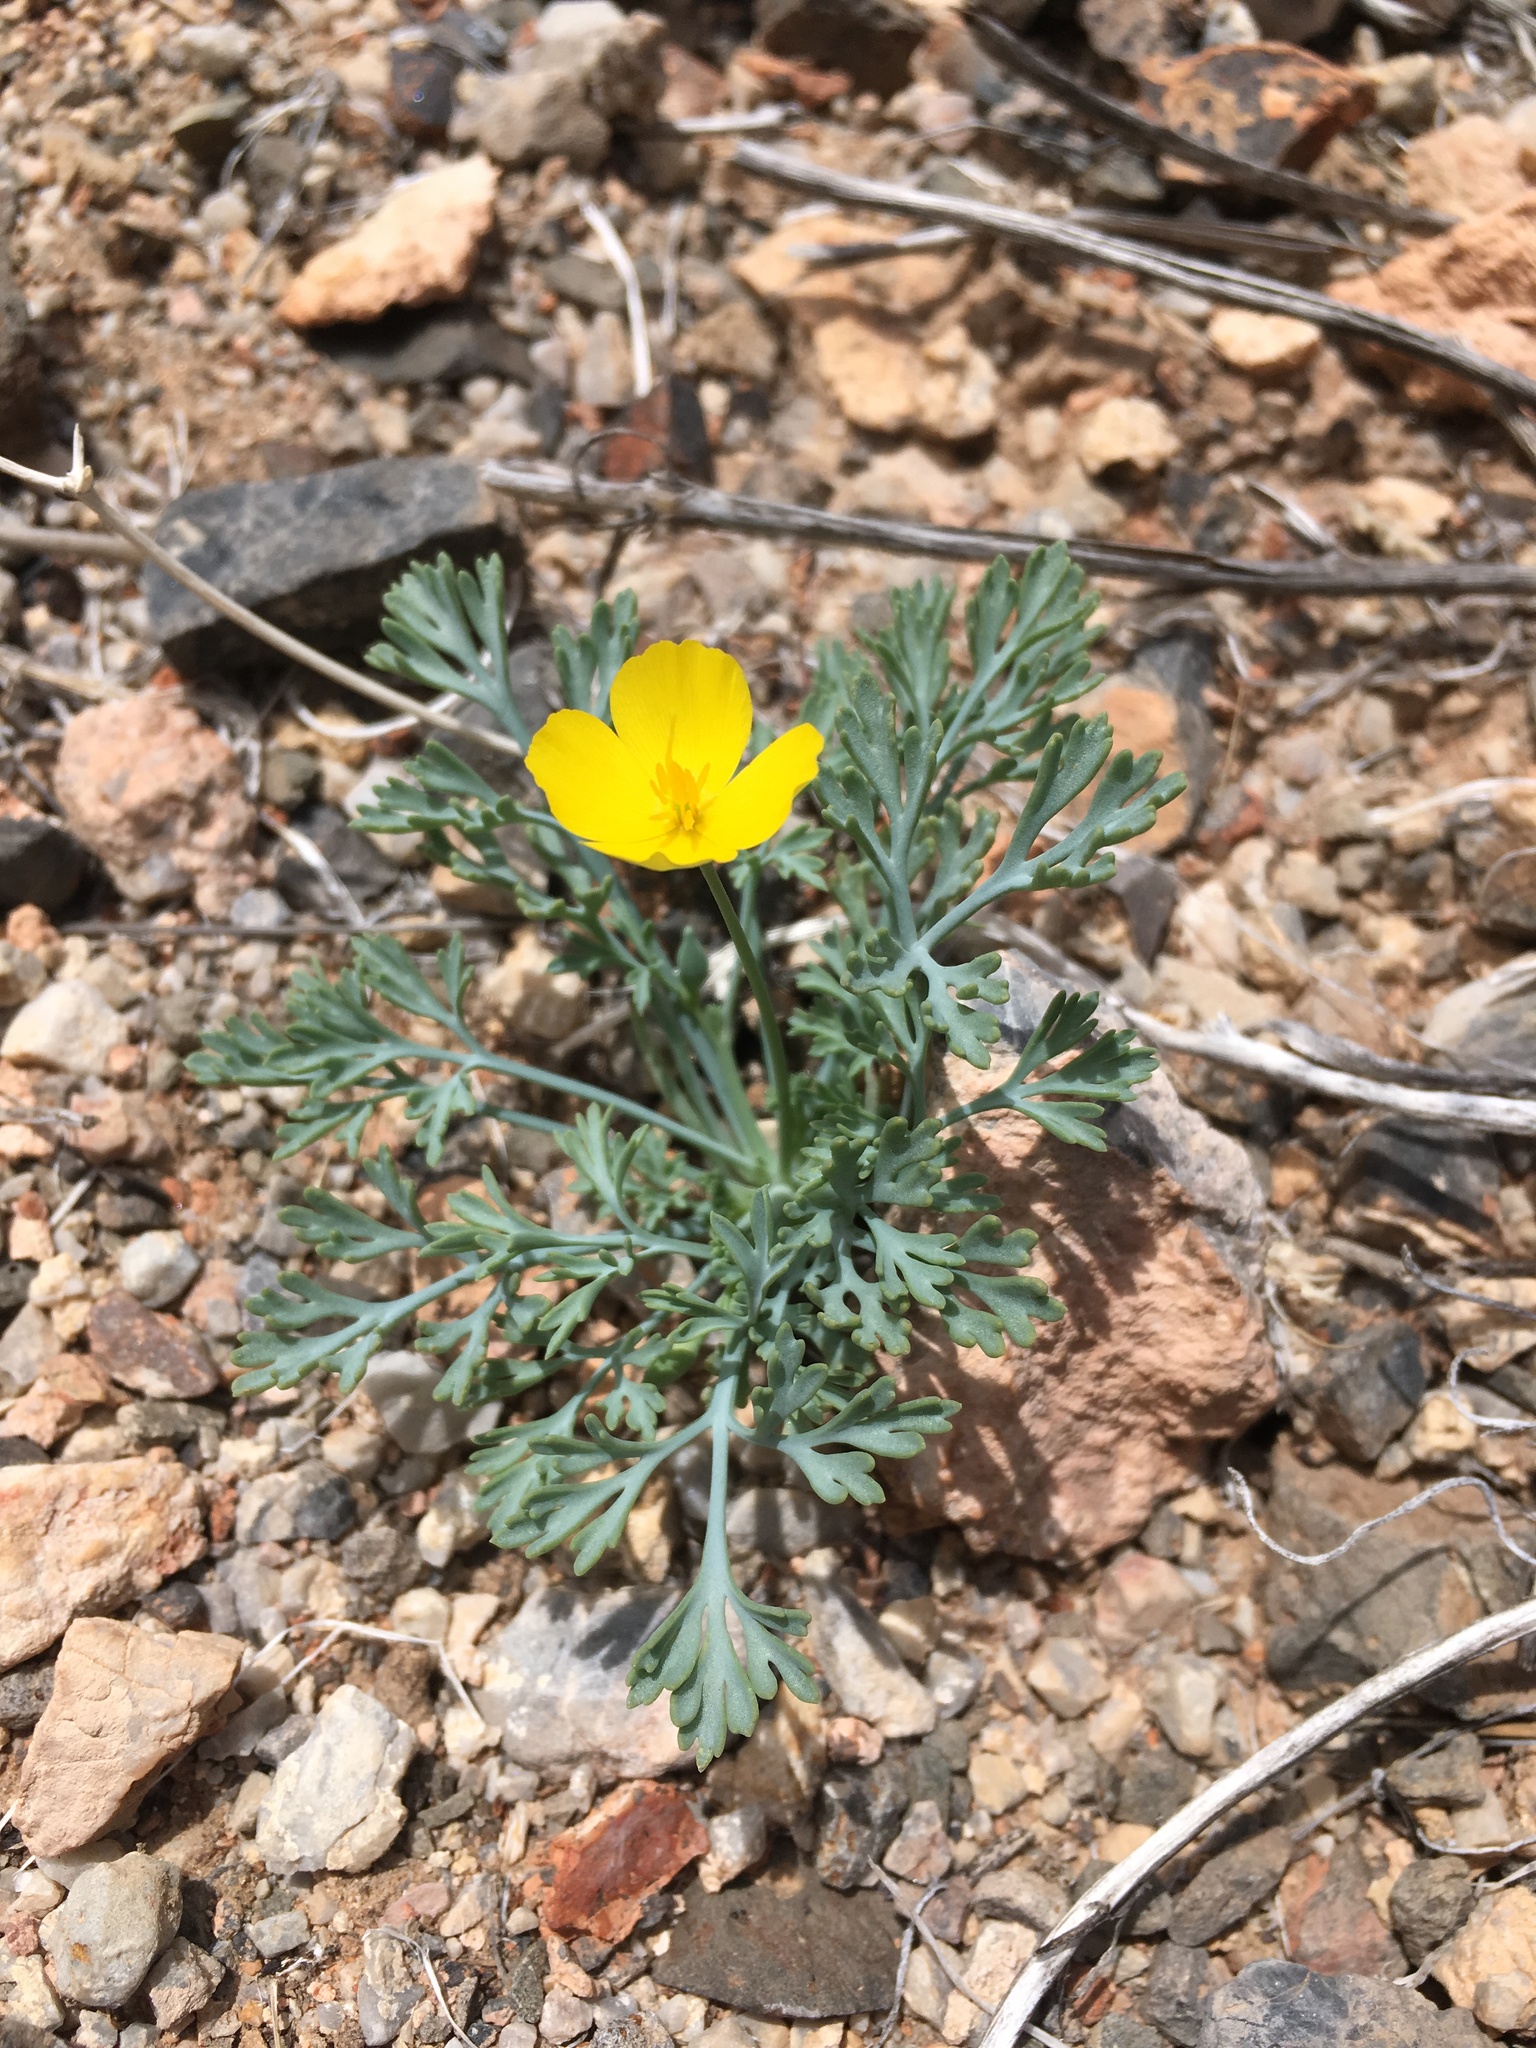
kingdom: Plantae
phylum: Tracheophyta
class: Magnoliopsida
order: Ranunculales
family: Papaveraceae
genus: Eschscholzia
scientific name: Eschscholzia minutiflora
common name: Small-flower california-poppy
